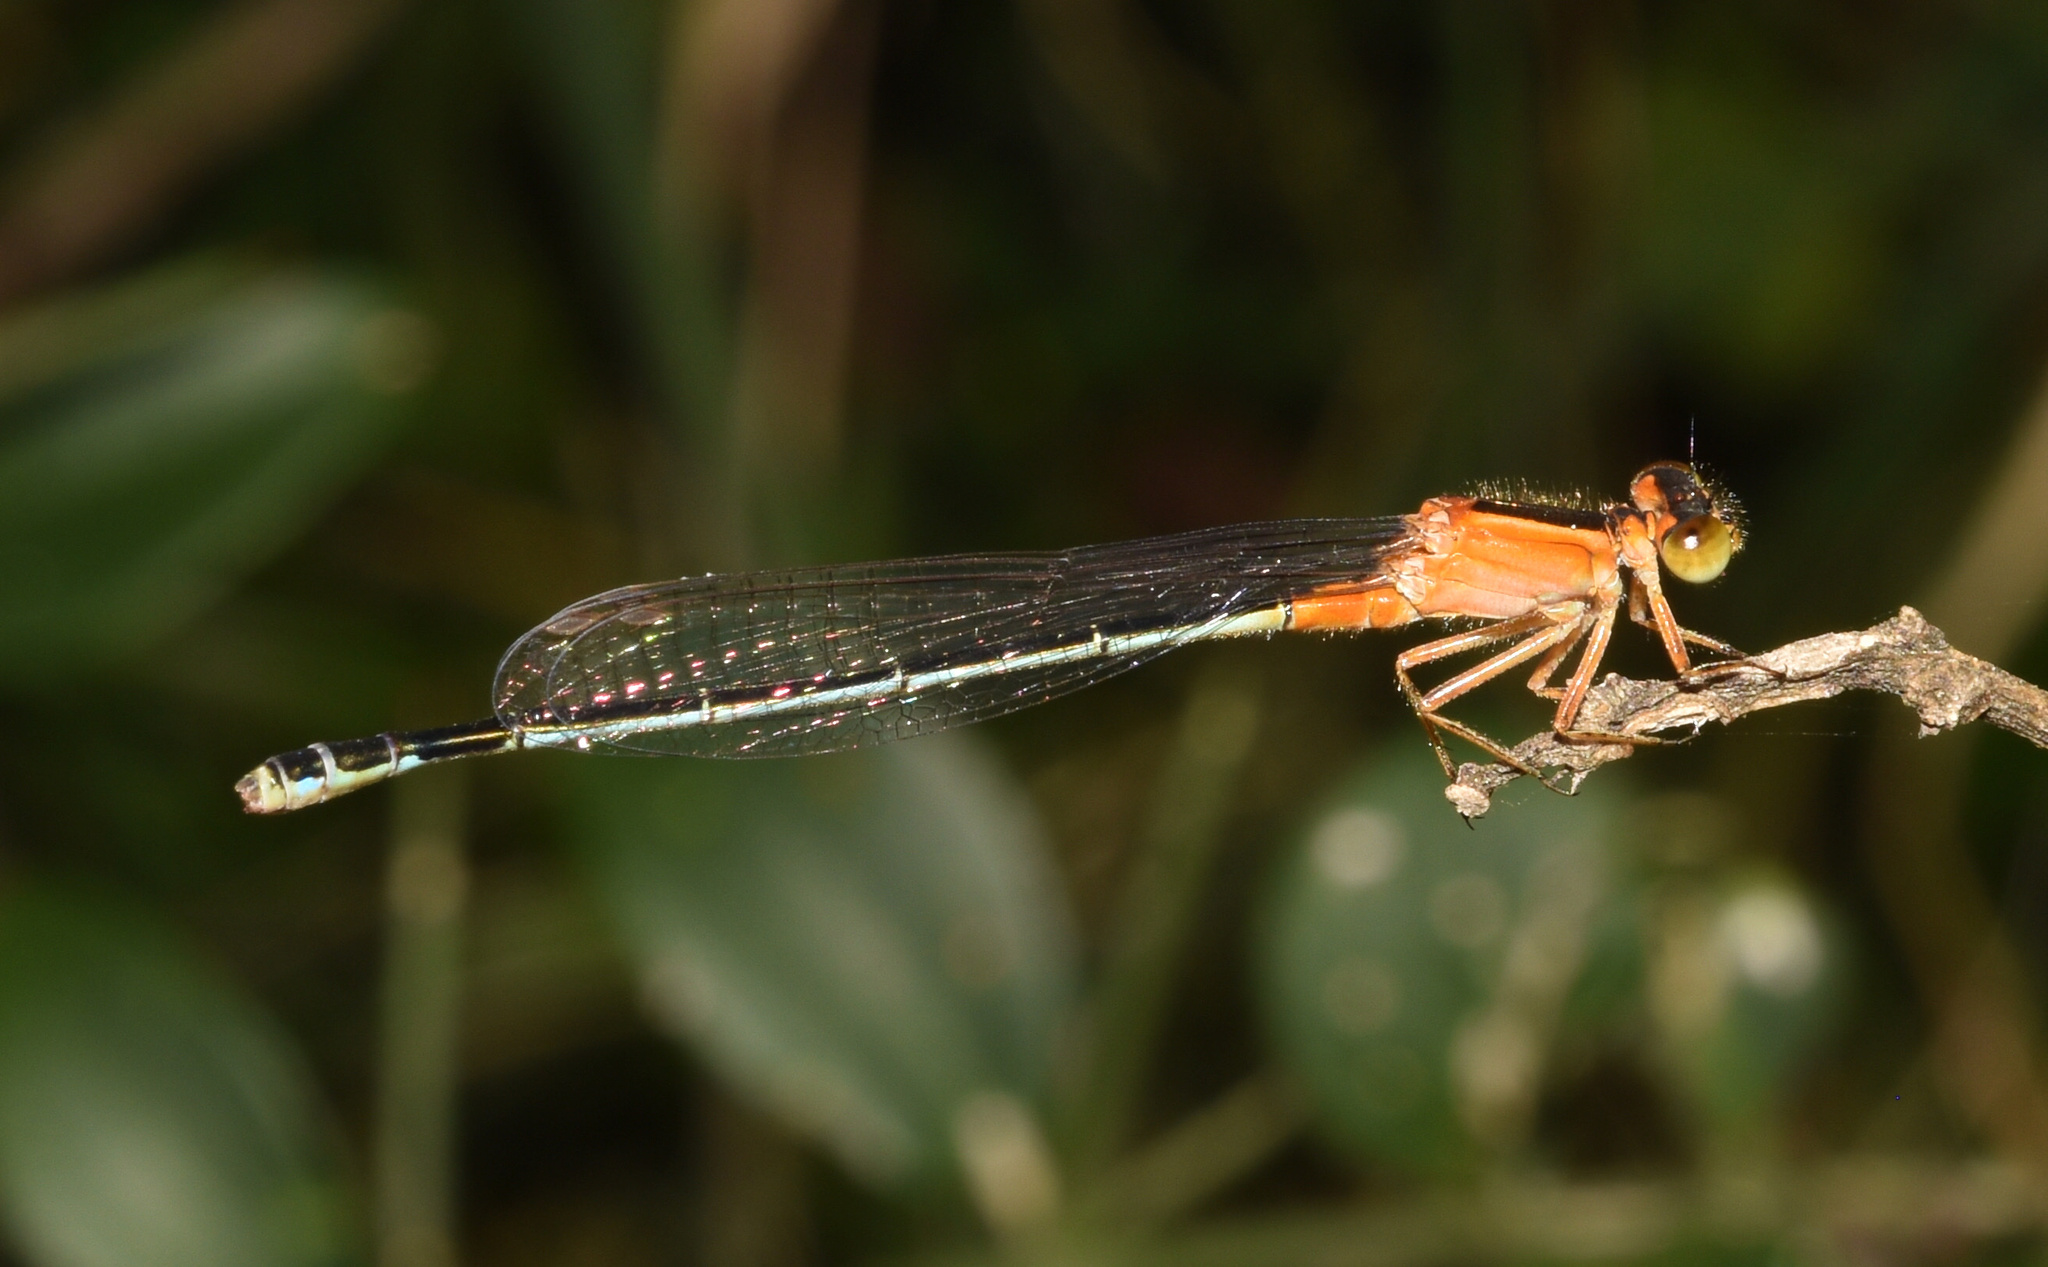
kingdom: Animalia
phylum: Arthropoda
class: Insecta
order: Odonata
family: Coenagrionidae
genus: Ischnura
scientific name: Ischnura senegalensis
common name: Tropical bluetail
